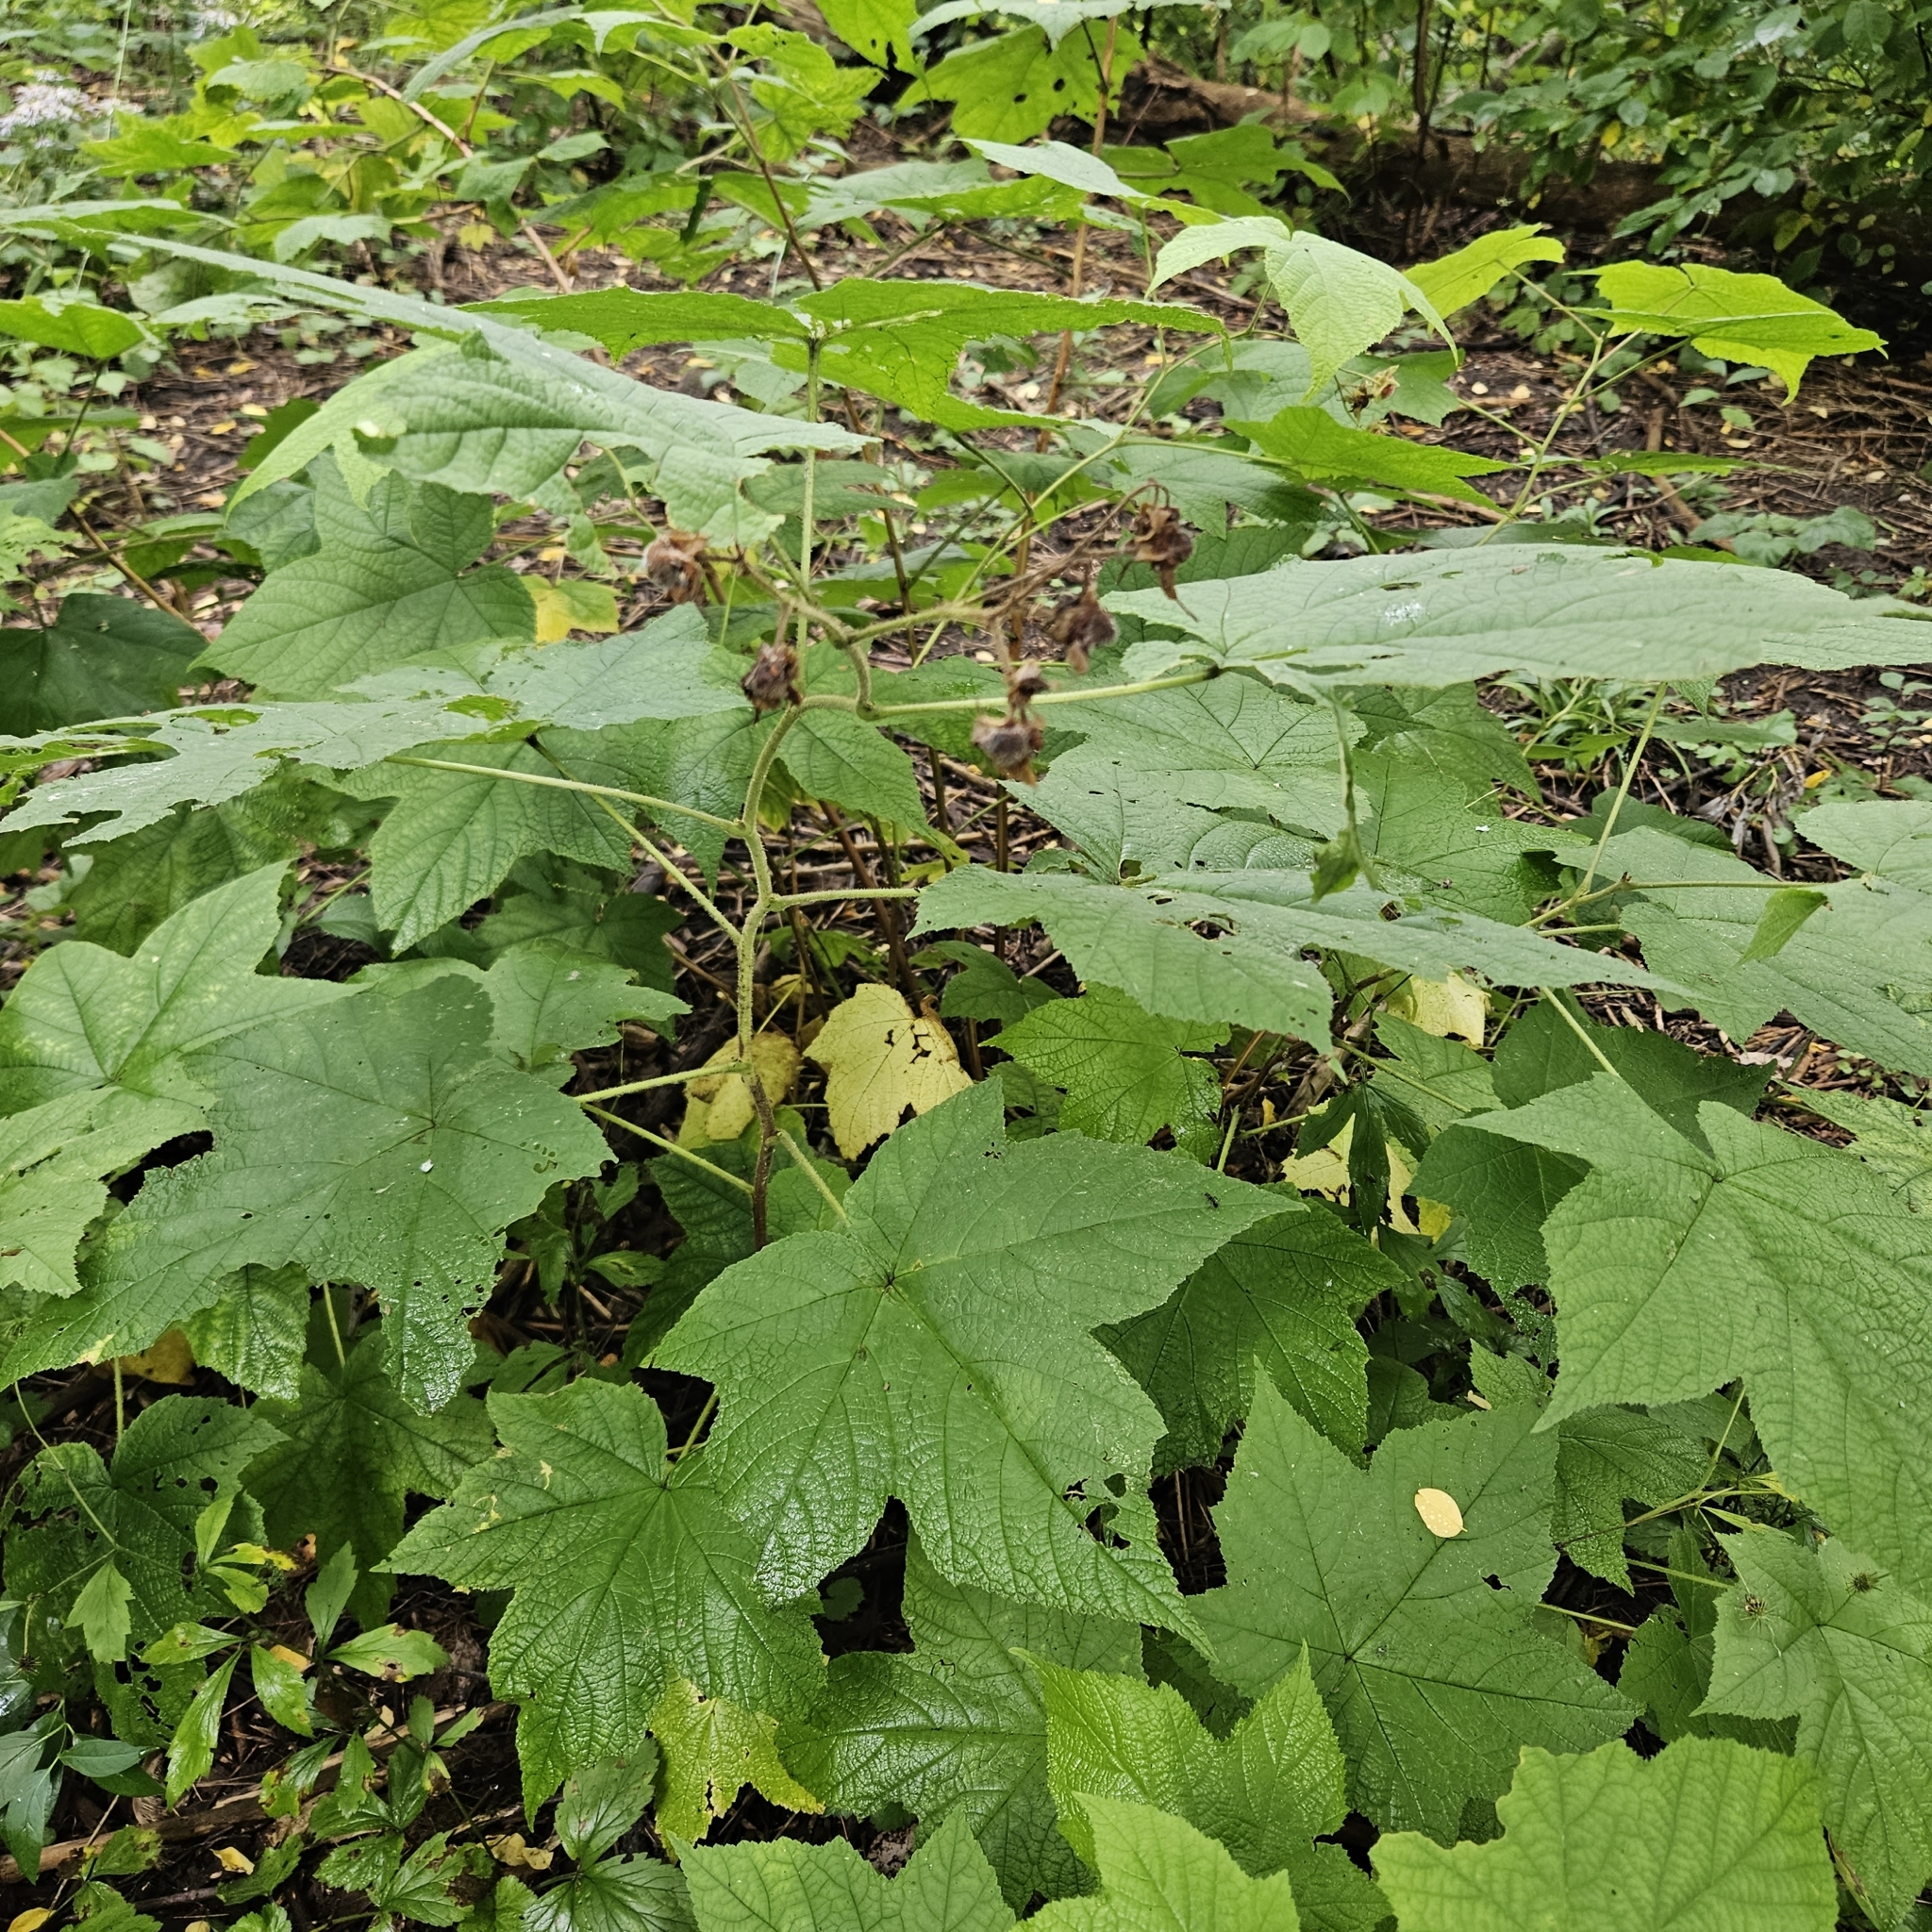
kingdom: Plantae
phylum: Tracheophyta
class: Magnoliopsida
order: Rosales
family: Rosaceae
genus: Rubus
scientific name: Rubus odoratus
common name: Purple-flowered raspberry
